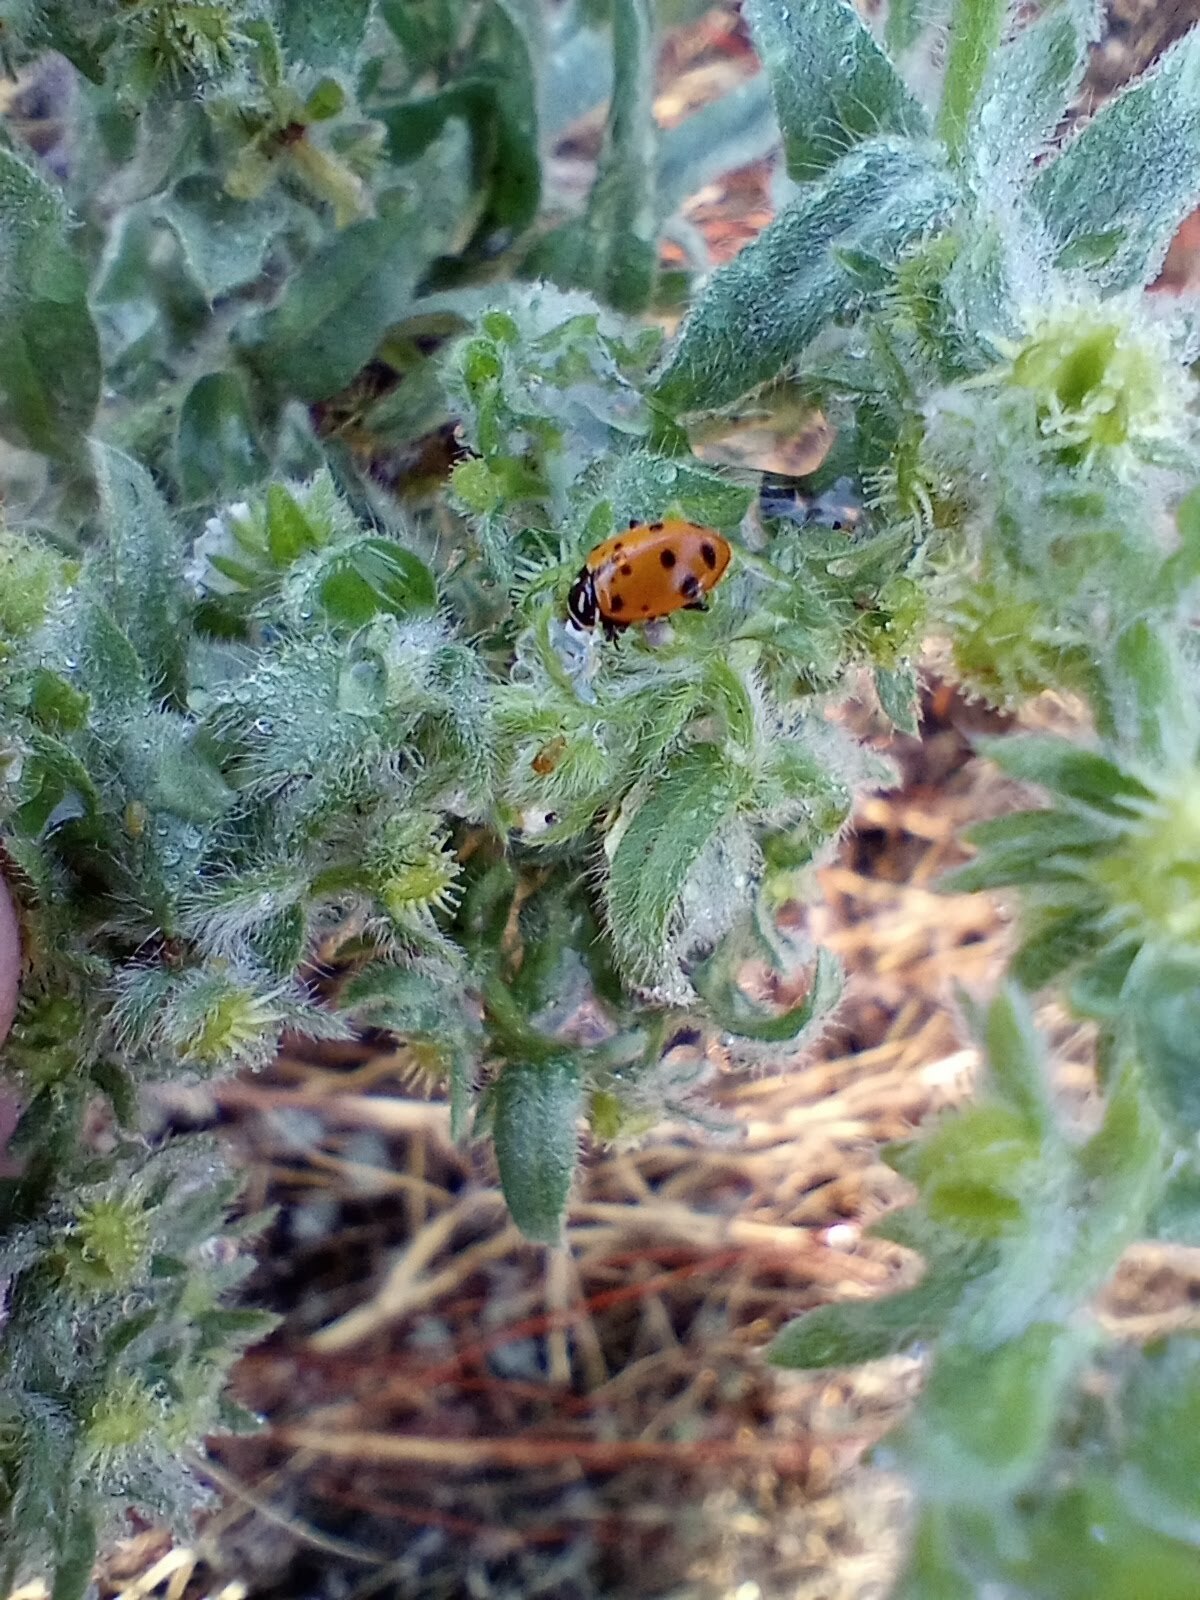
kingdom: Animalia
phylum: Arthropoda
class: Insecta
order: Coleoptera
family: Coccinellidae
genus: Hippodamia
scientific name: Hippodamia convergens
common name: Convergent lady beetle
